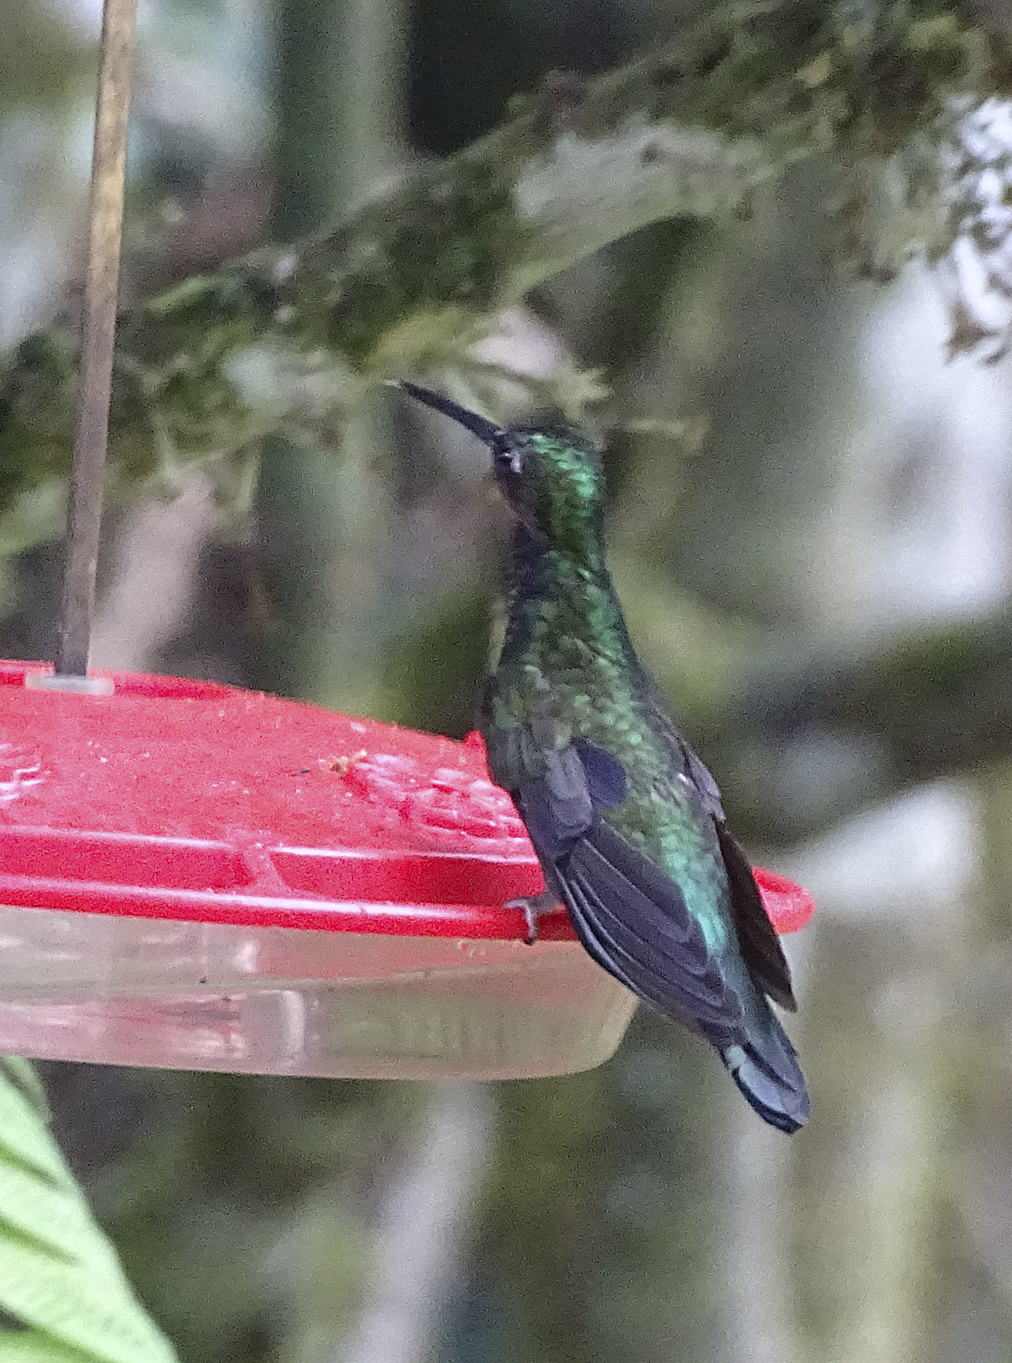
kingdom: Animalia
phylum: Chordata
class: Aves
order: Apodiformes
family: Trochilidae
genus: Campylopterus
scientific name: Campylopterus villaviscensio
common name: Napo sabrewing
